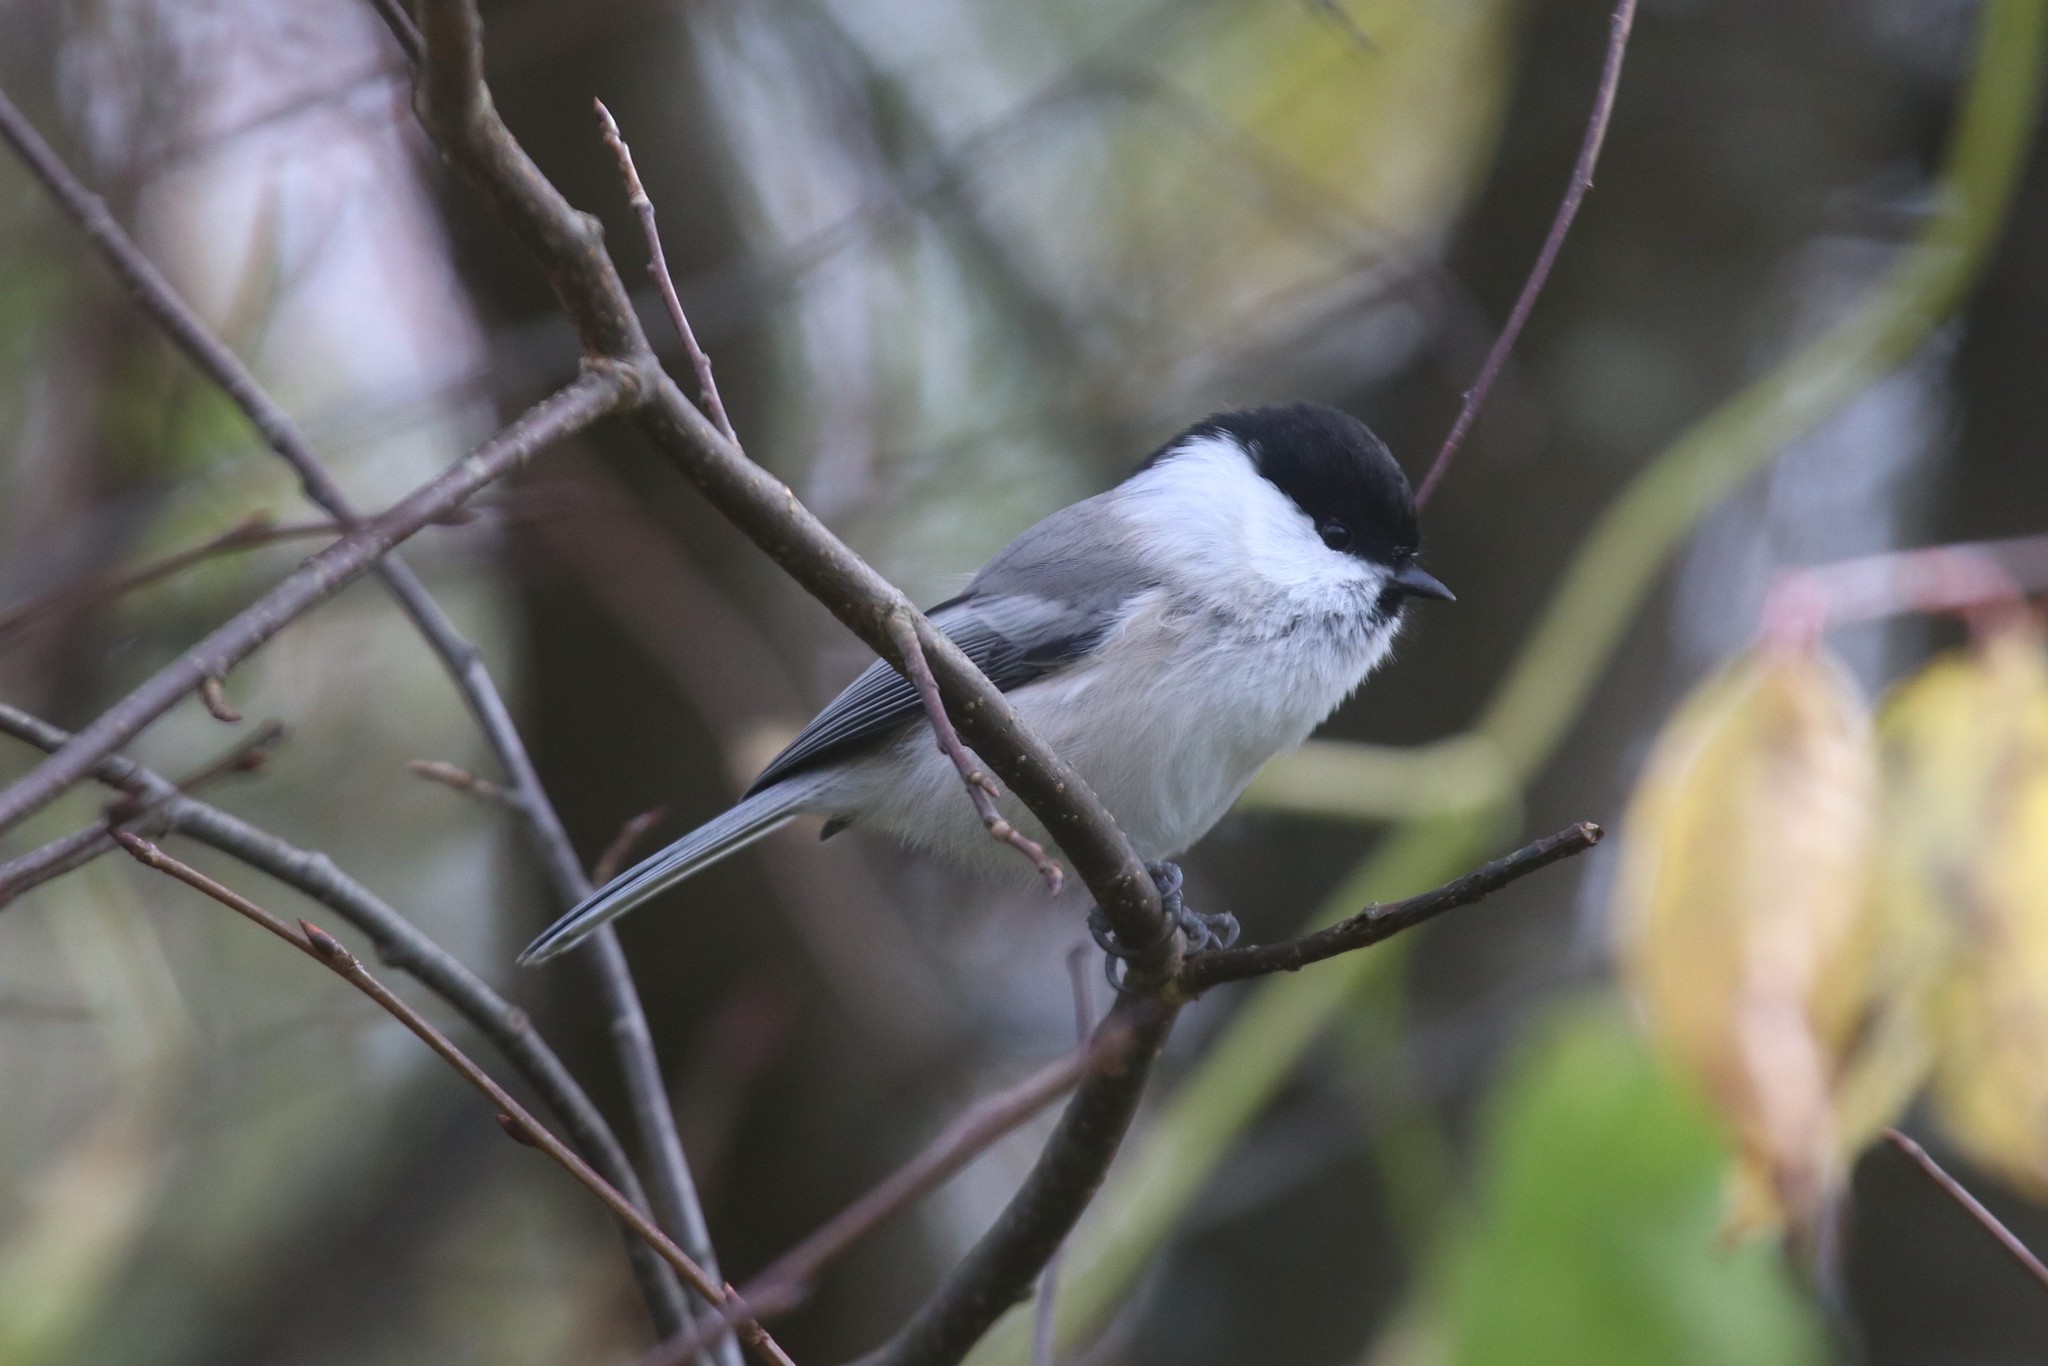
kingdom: Animalia
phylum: Chordata
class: Aves
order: Passeriformes
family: Paridae
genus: Poecile
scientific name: Poecile montanus
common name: Willow tit
